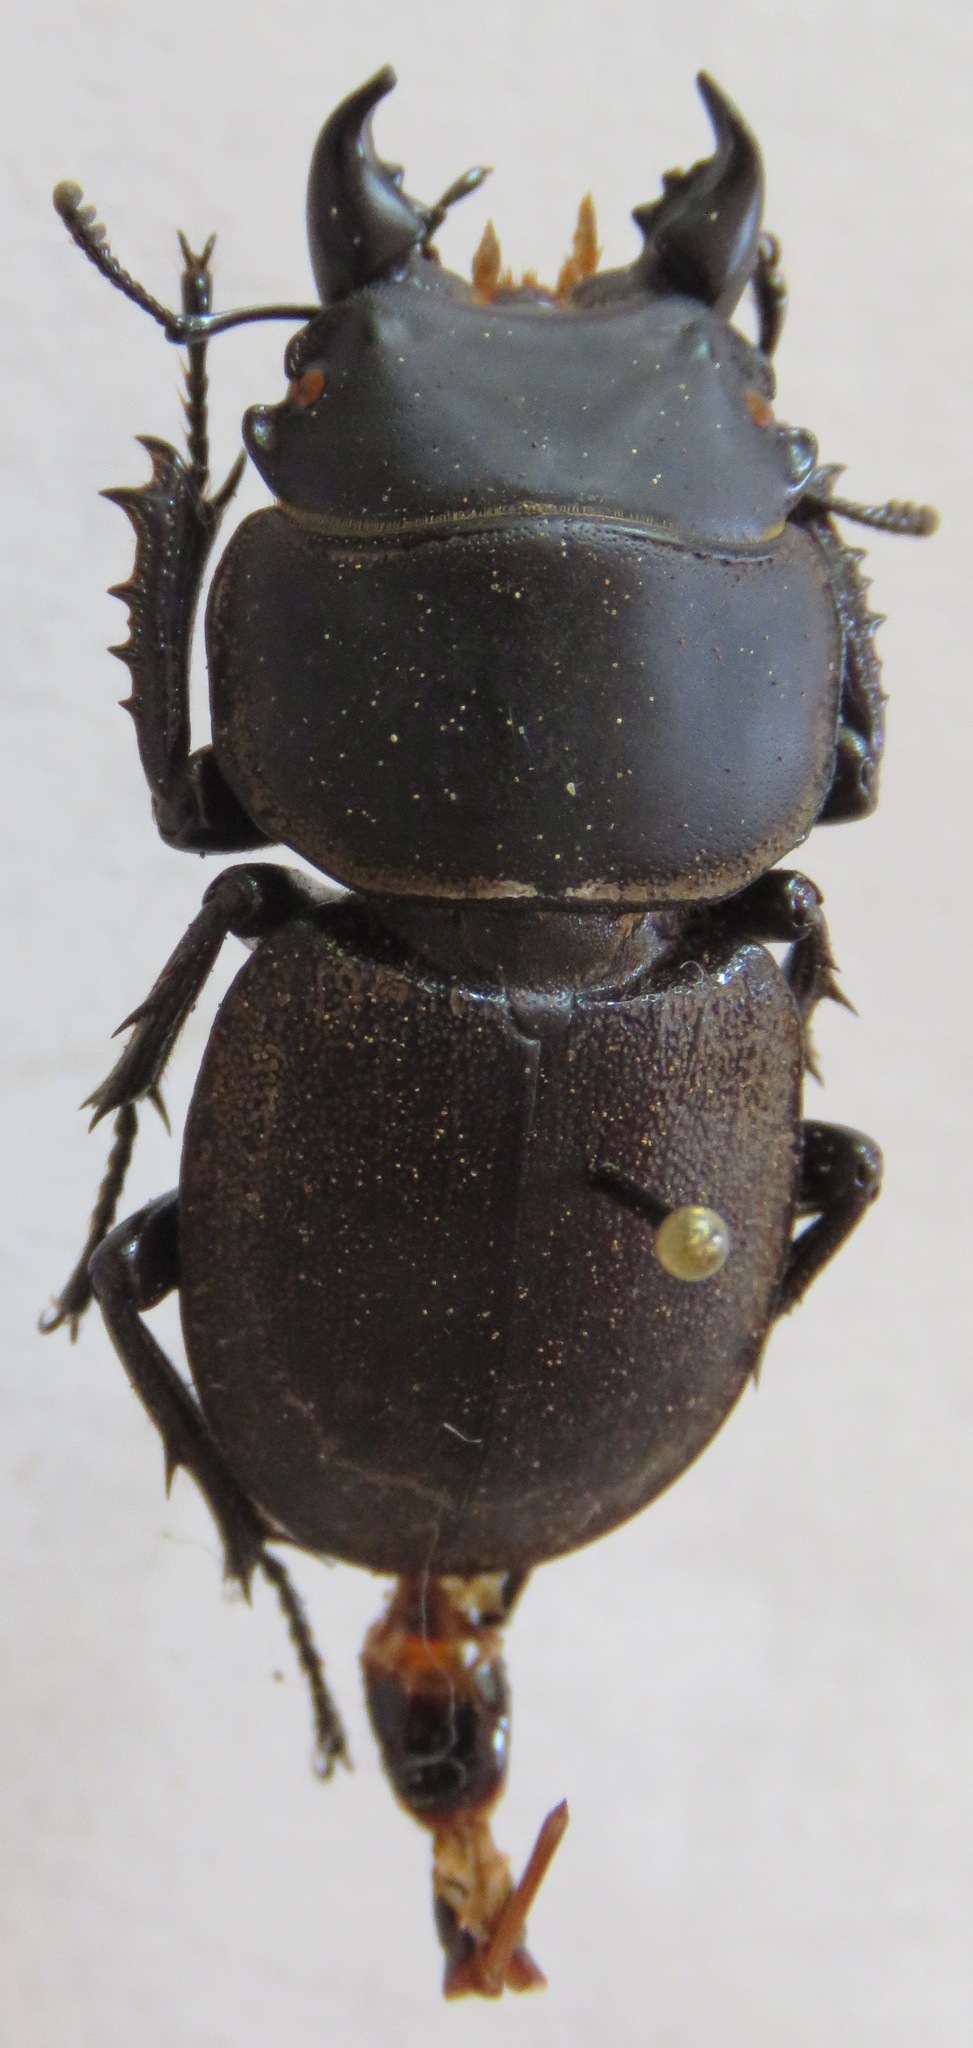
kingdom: Animalia
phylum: Arthropoda
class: Insecta
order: Coleoptera
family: Lucanidae
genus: Apterodorcus
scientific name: Apterodorcus bacchus
